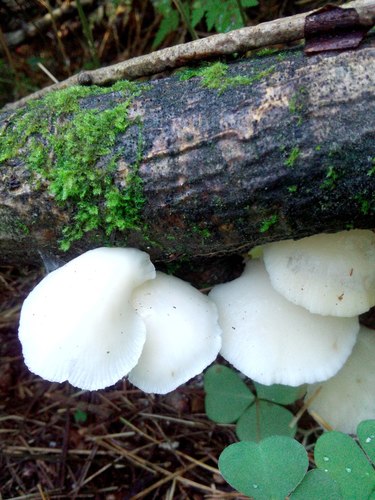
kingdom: Fungi
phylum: Basidiomycota
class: Agaricomycetes
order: Agaricales
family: Pleurotaceae
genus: Pleurotus
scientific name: Pleurotus pulmonarius
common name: Pale oyster
